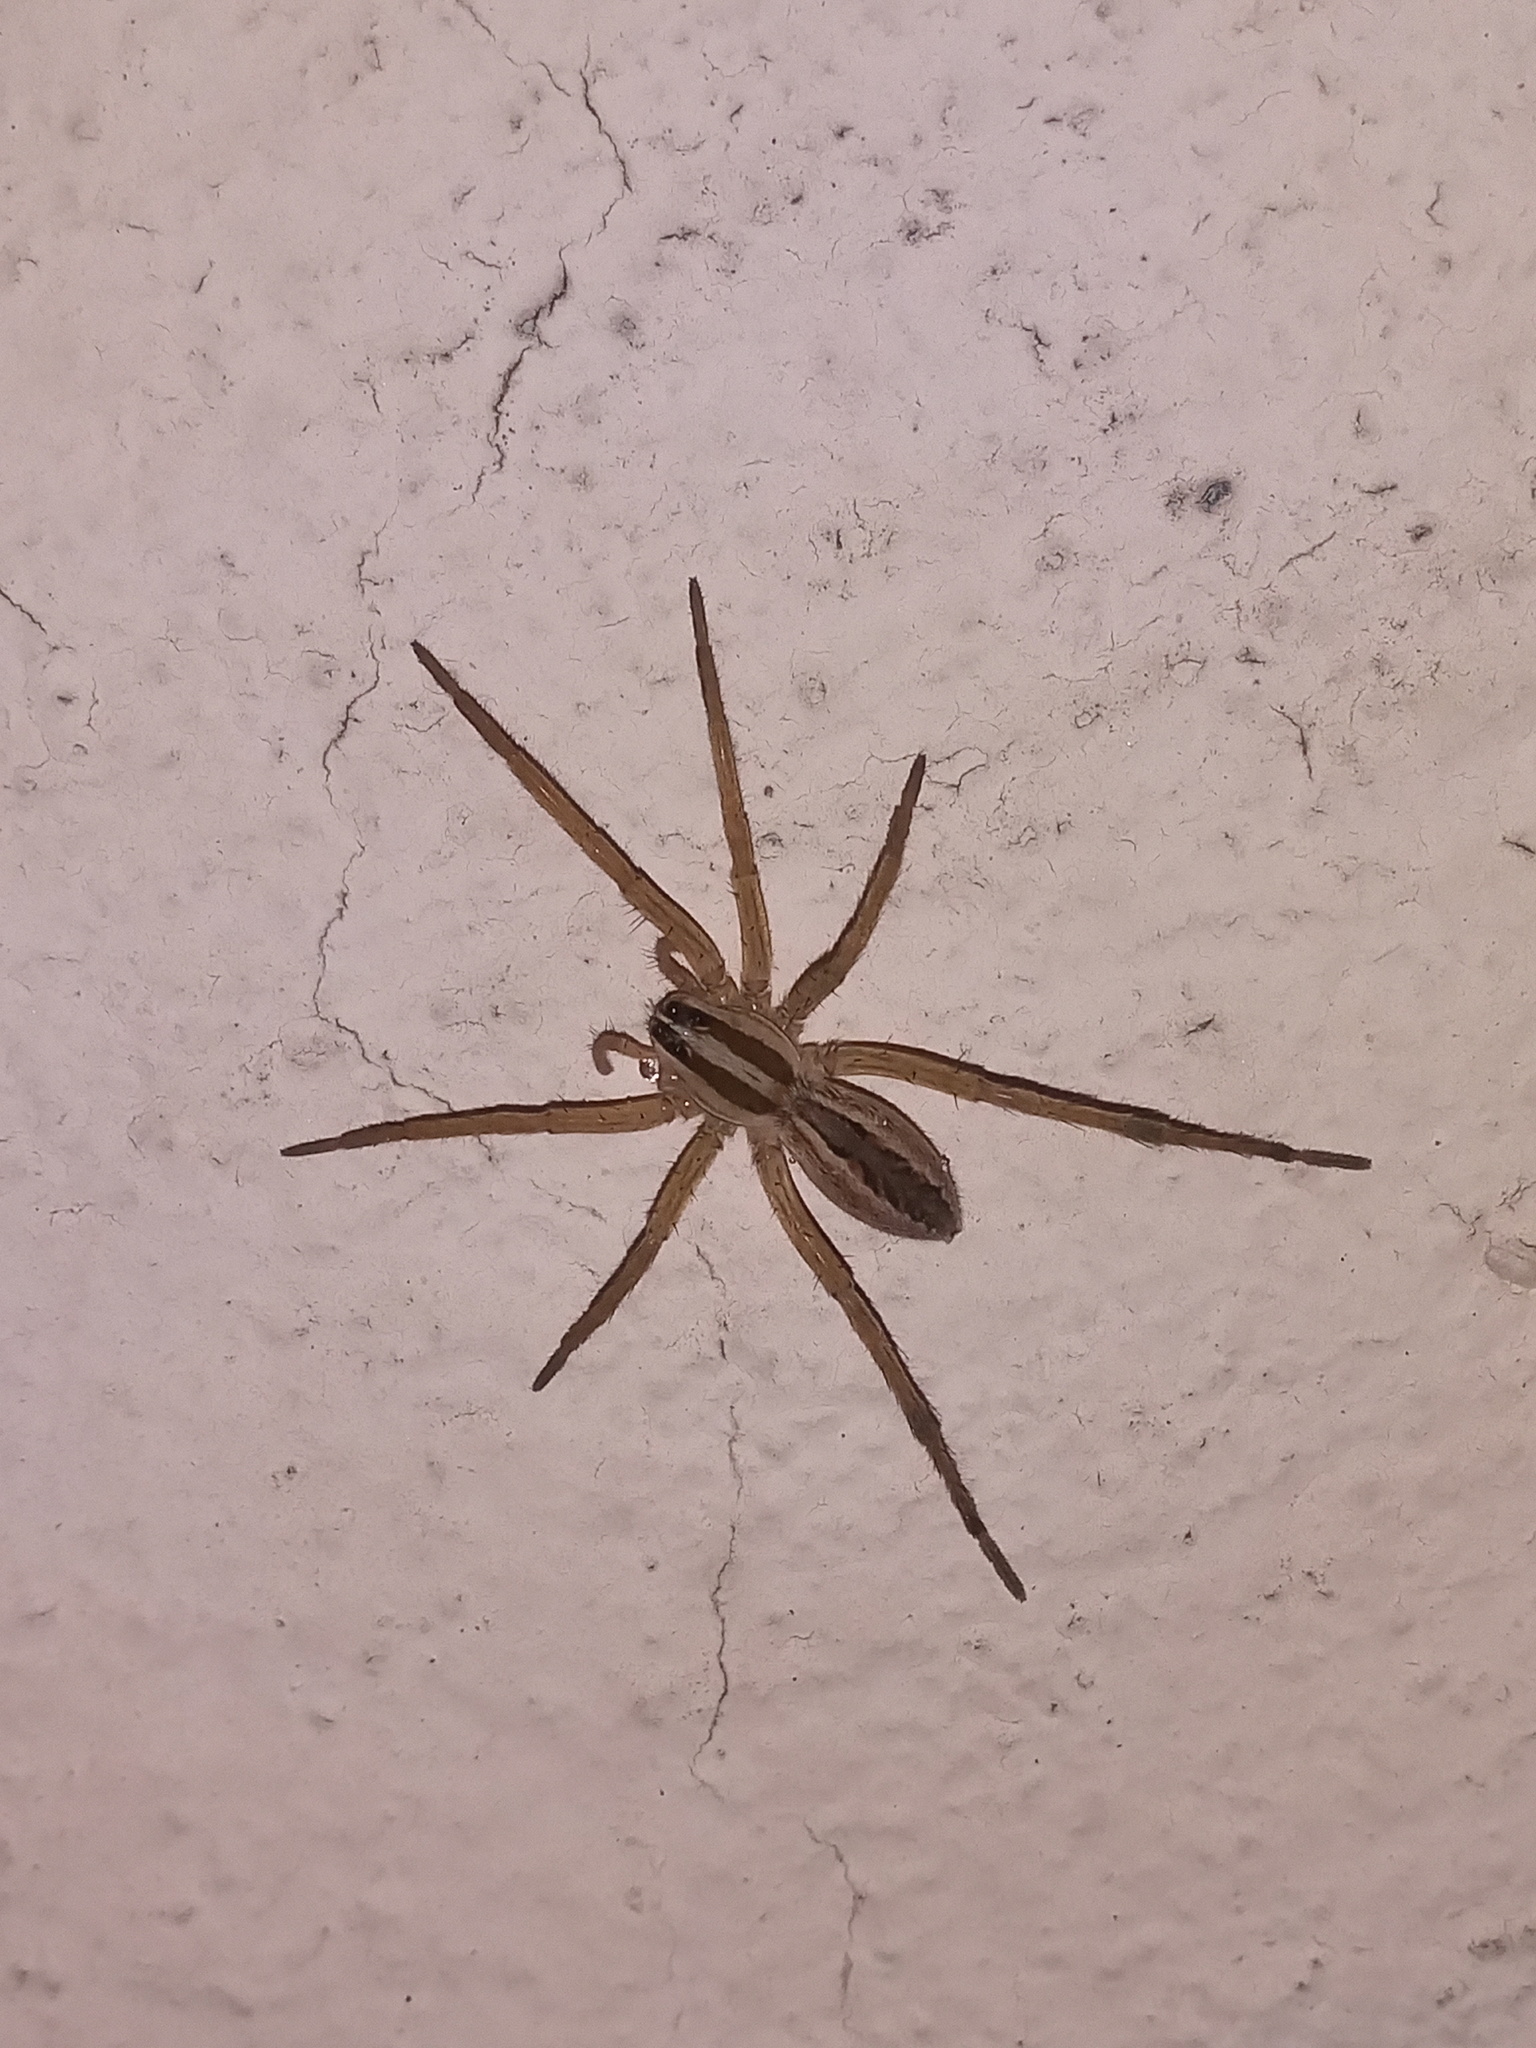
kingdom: Animalia
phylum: Arthropoda
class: Arachnida
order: Araneae
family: Lycosidae
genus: Rabidosa
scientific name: Rabidosa rabida
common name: Rabid wolf spider
